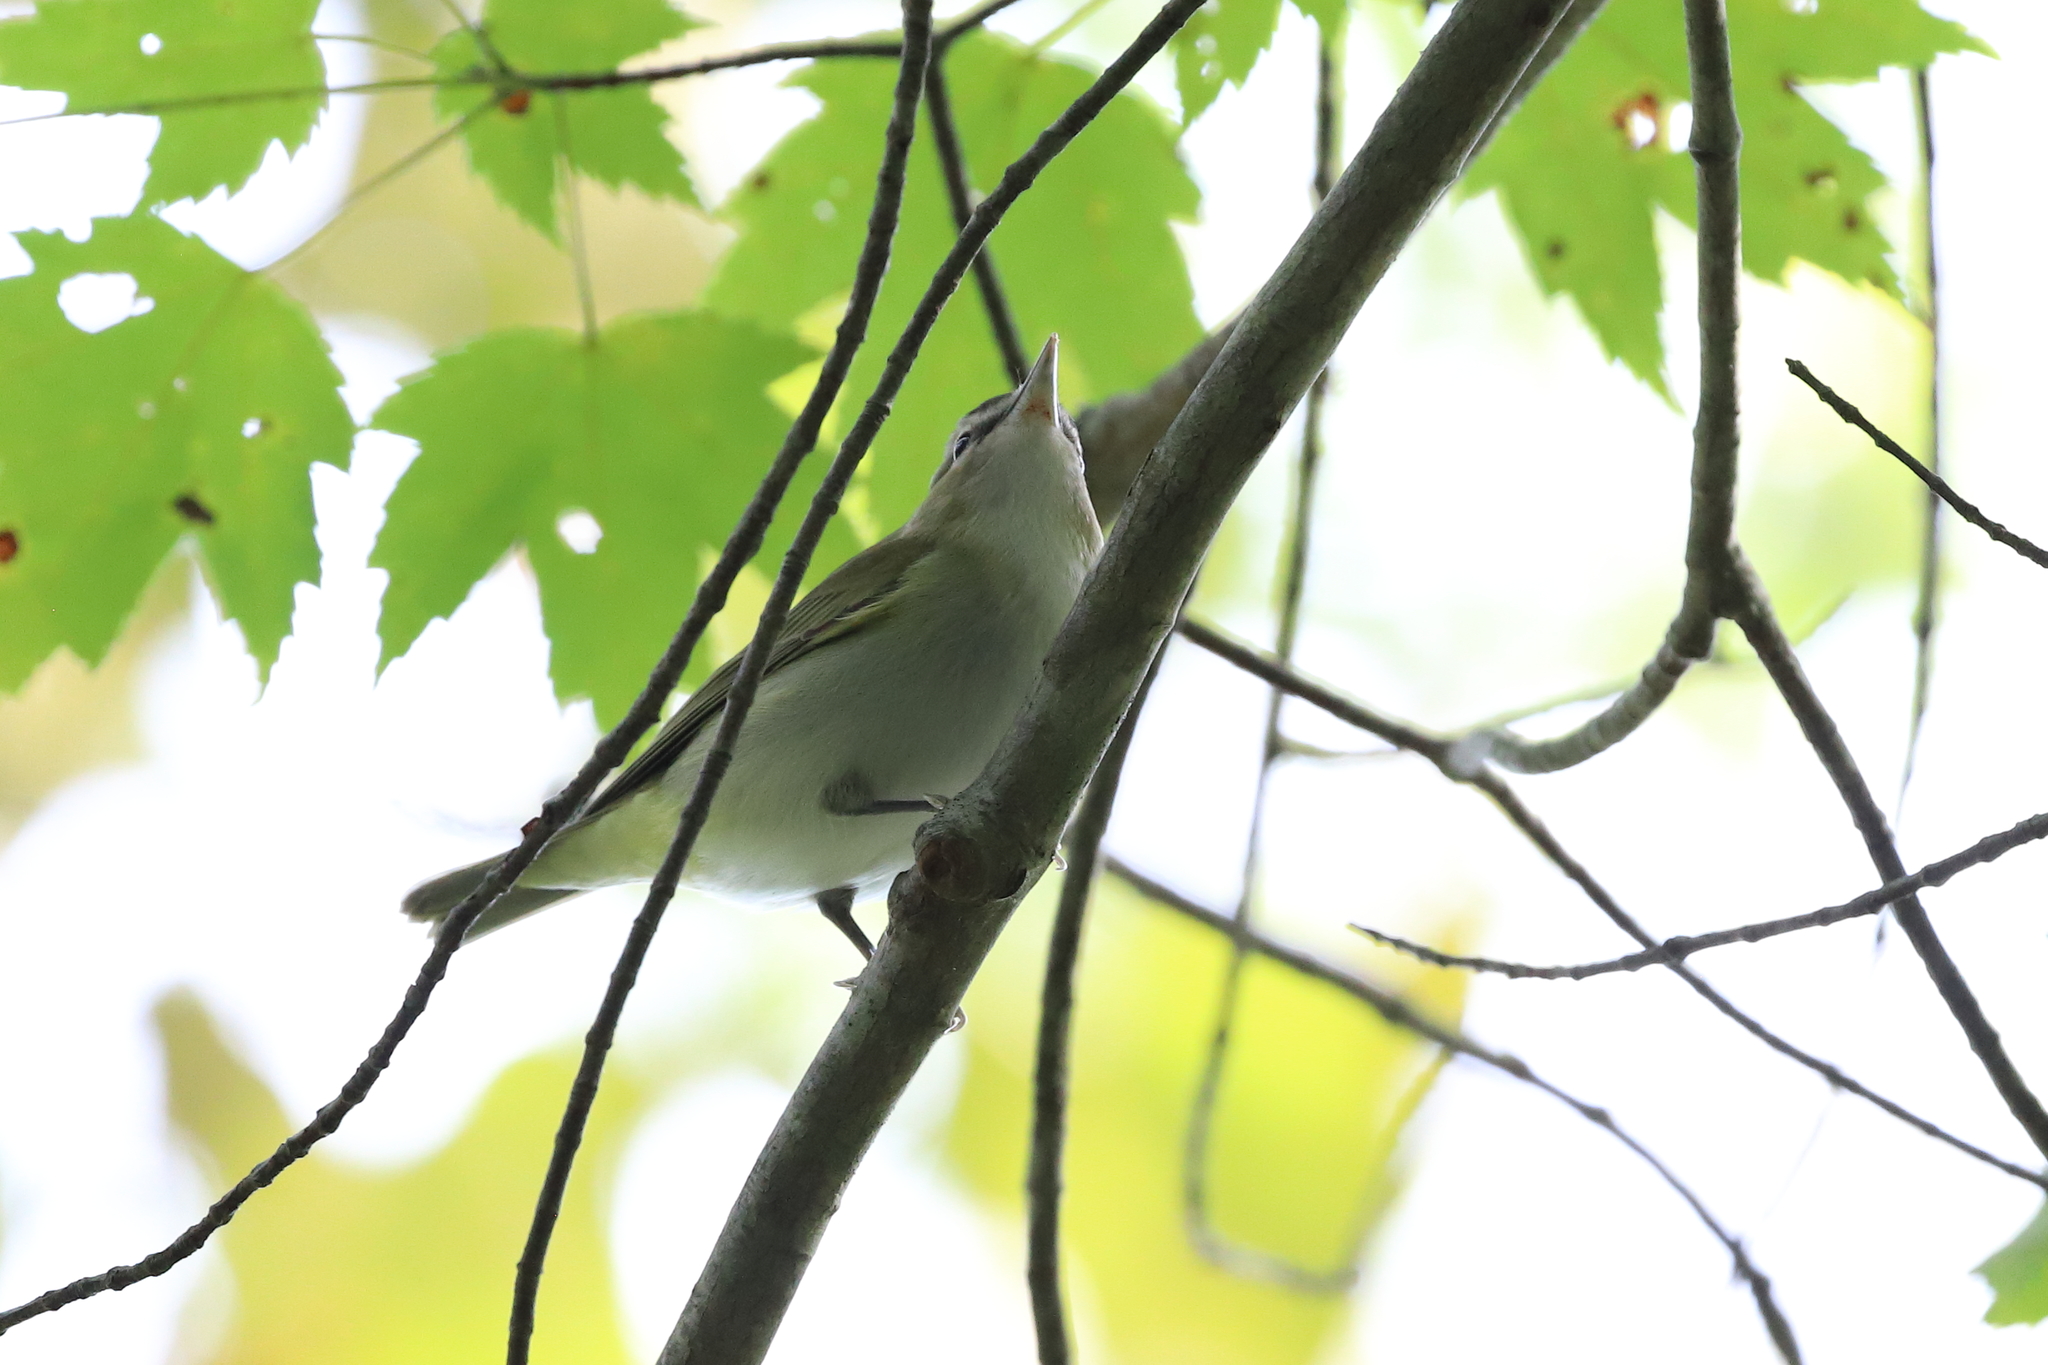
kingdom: Animalia
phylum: Chordata
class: Aves
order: Passeriformes
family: Vireonidae
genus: Vireo
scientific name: Vireo olivaceus
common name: Red-eyed vireo
